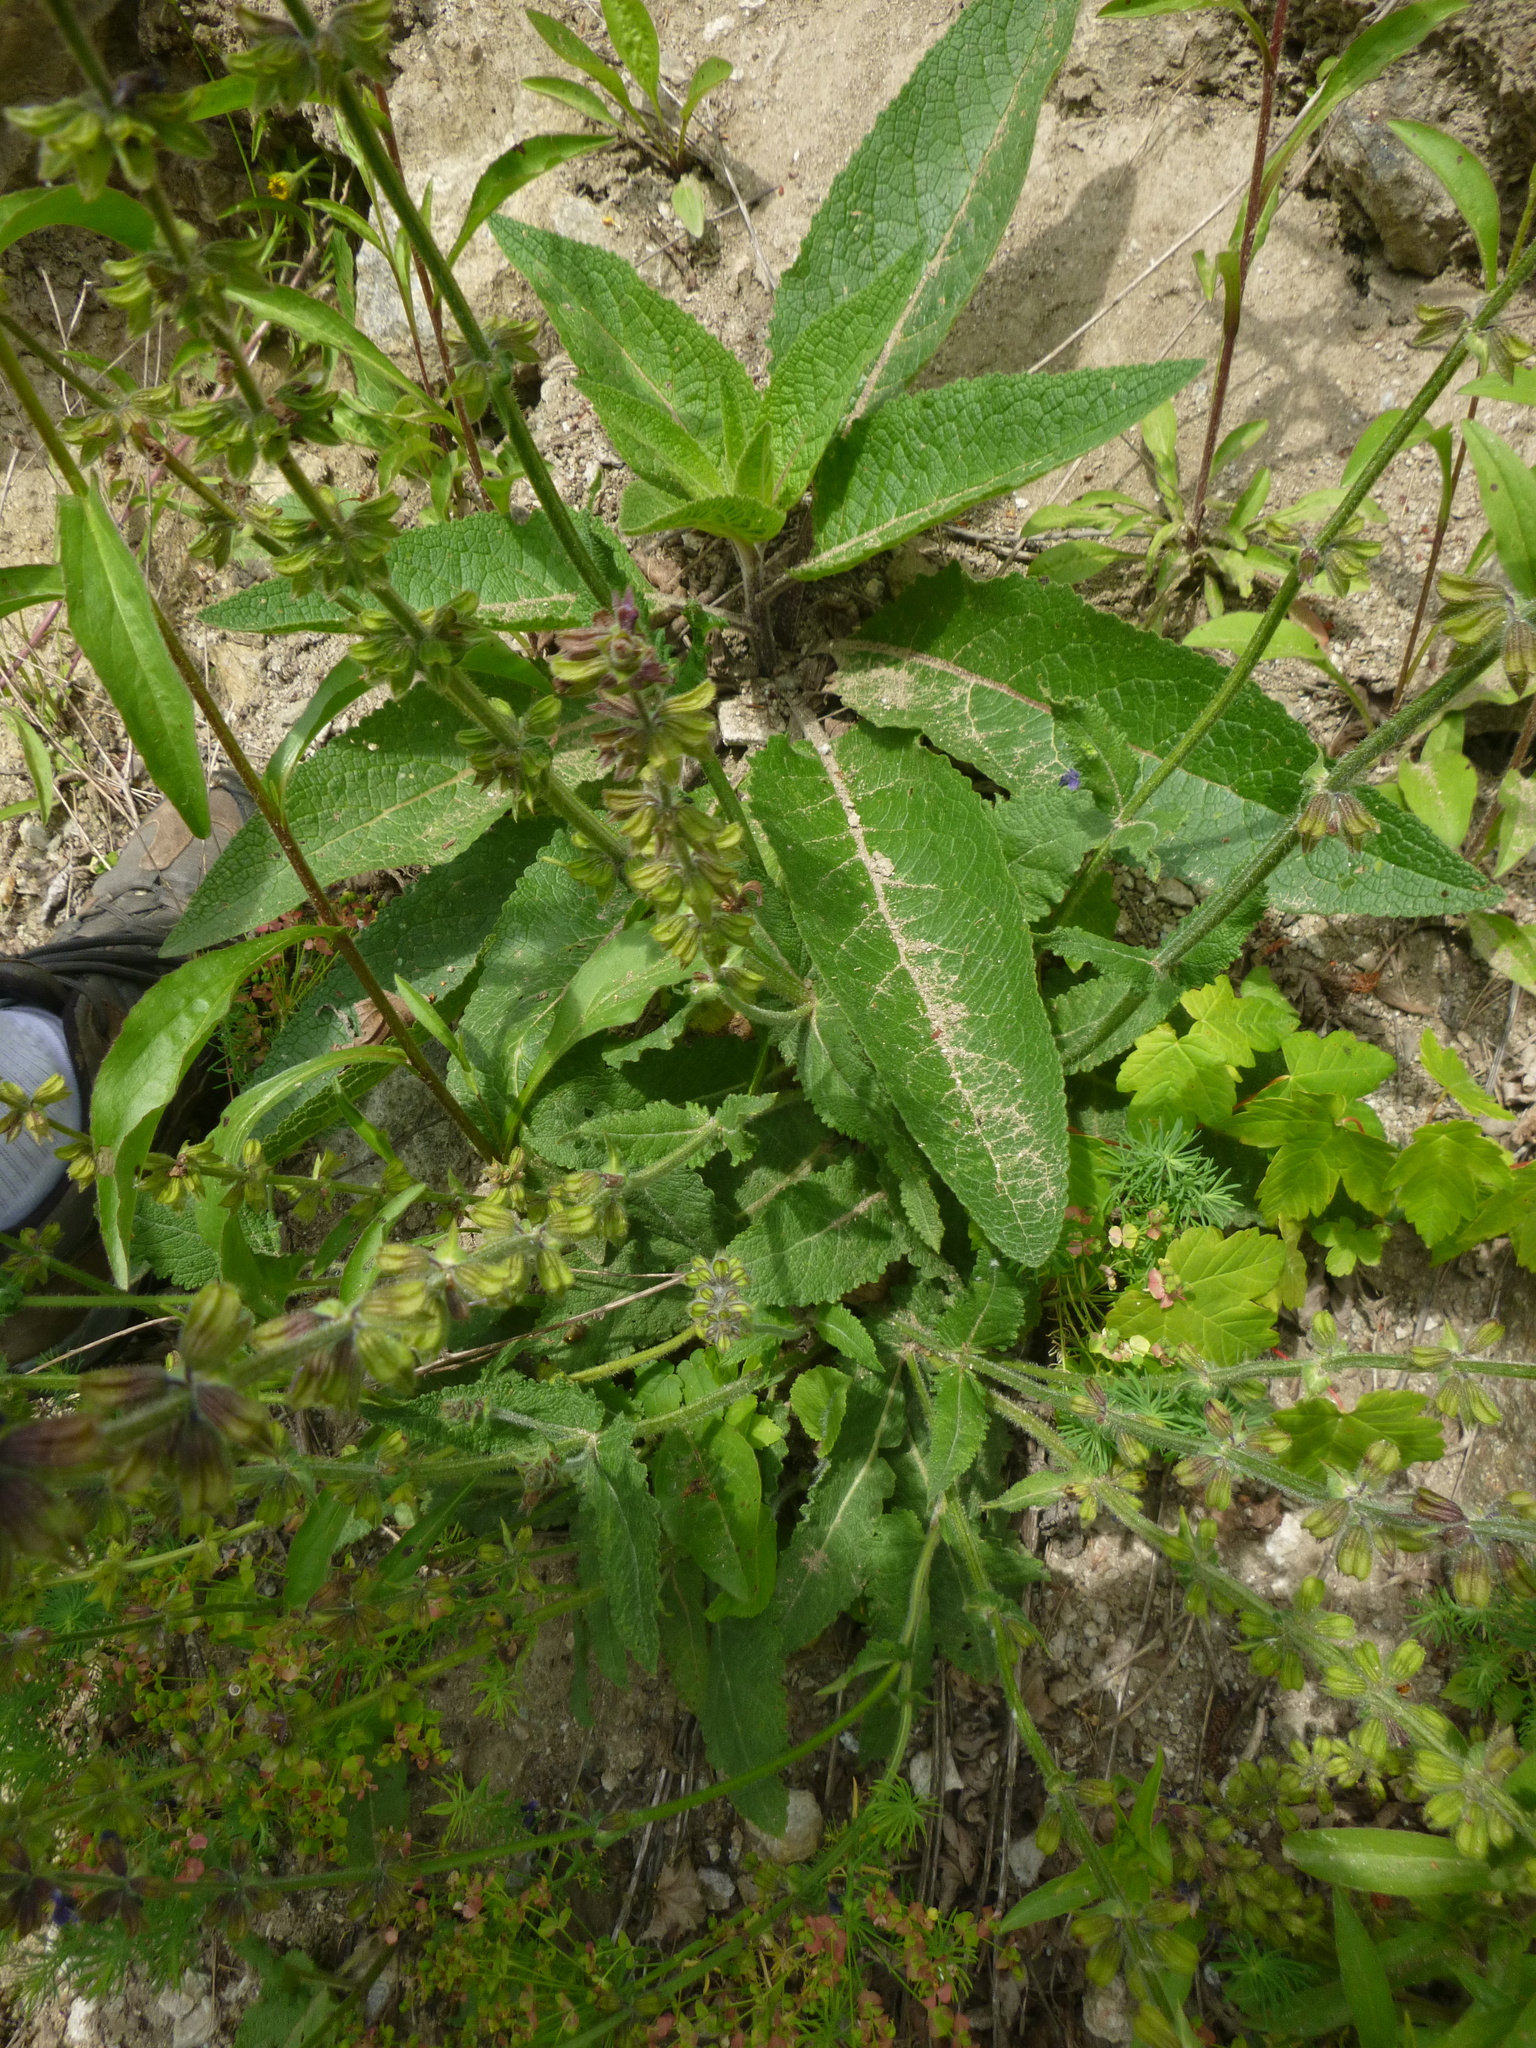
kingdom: Plantae
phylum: Tracheophyta
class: Magnoliopsida
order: Lamiales
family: Lamiaceae
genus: Salvia
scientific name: Salvia pratensis
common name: Meadow sage
